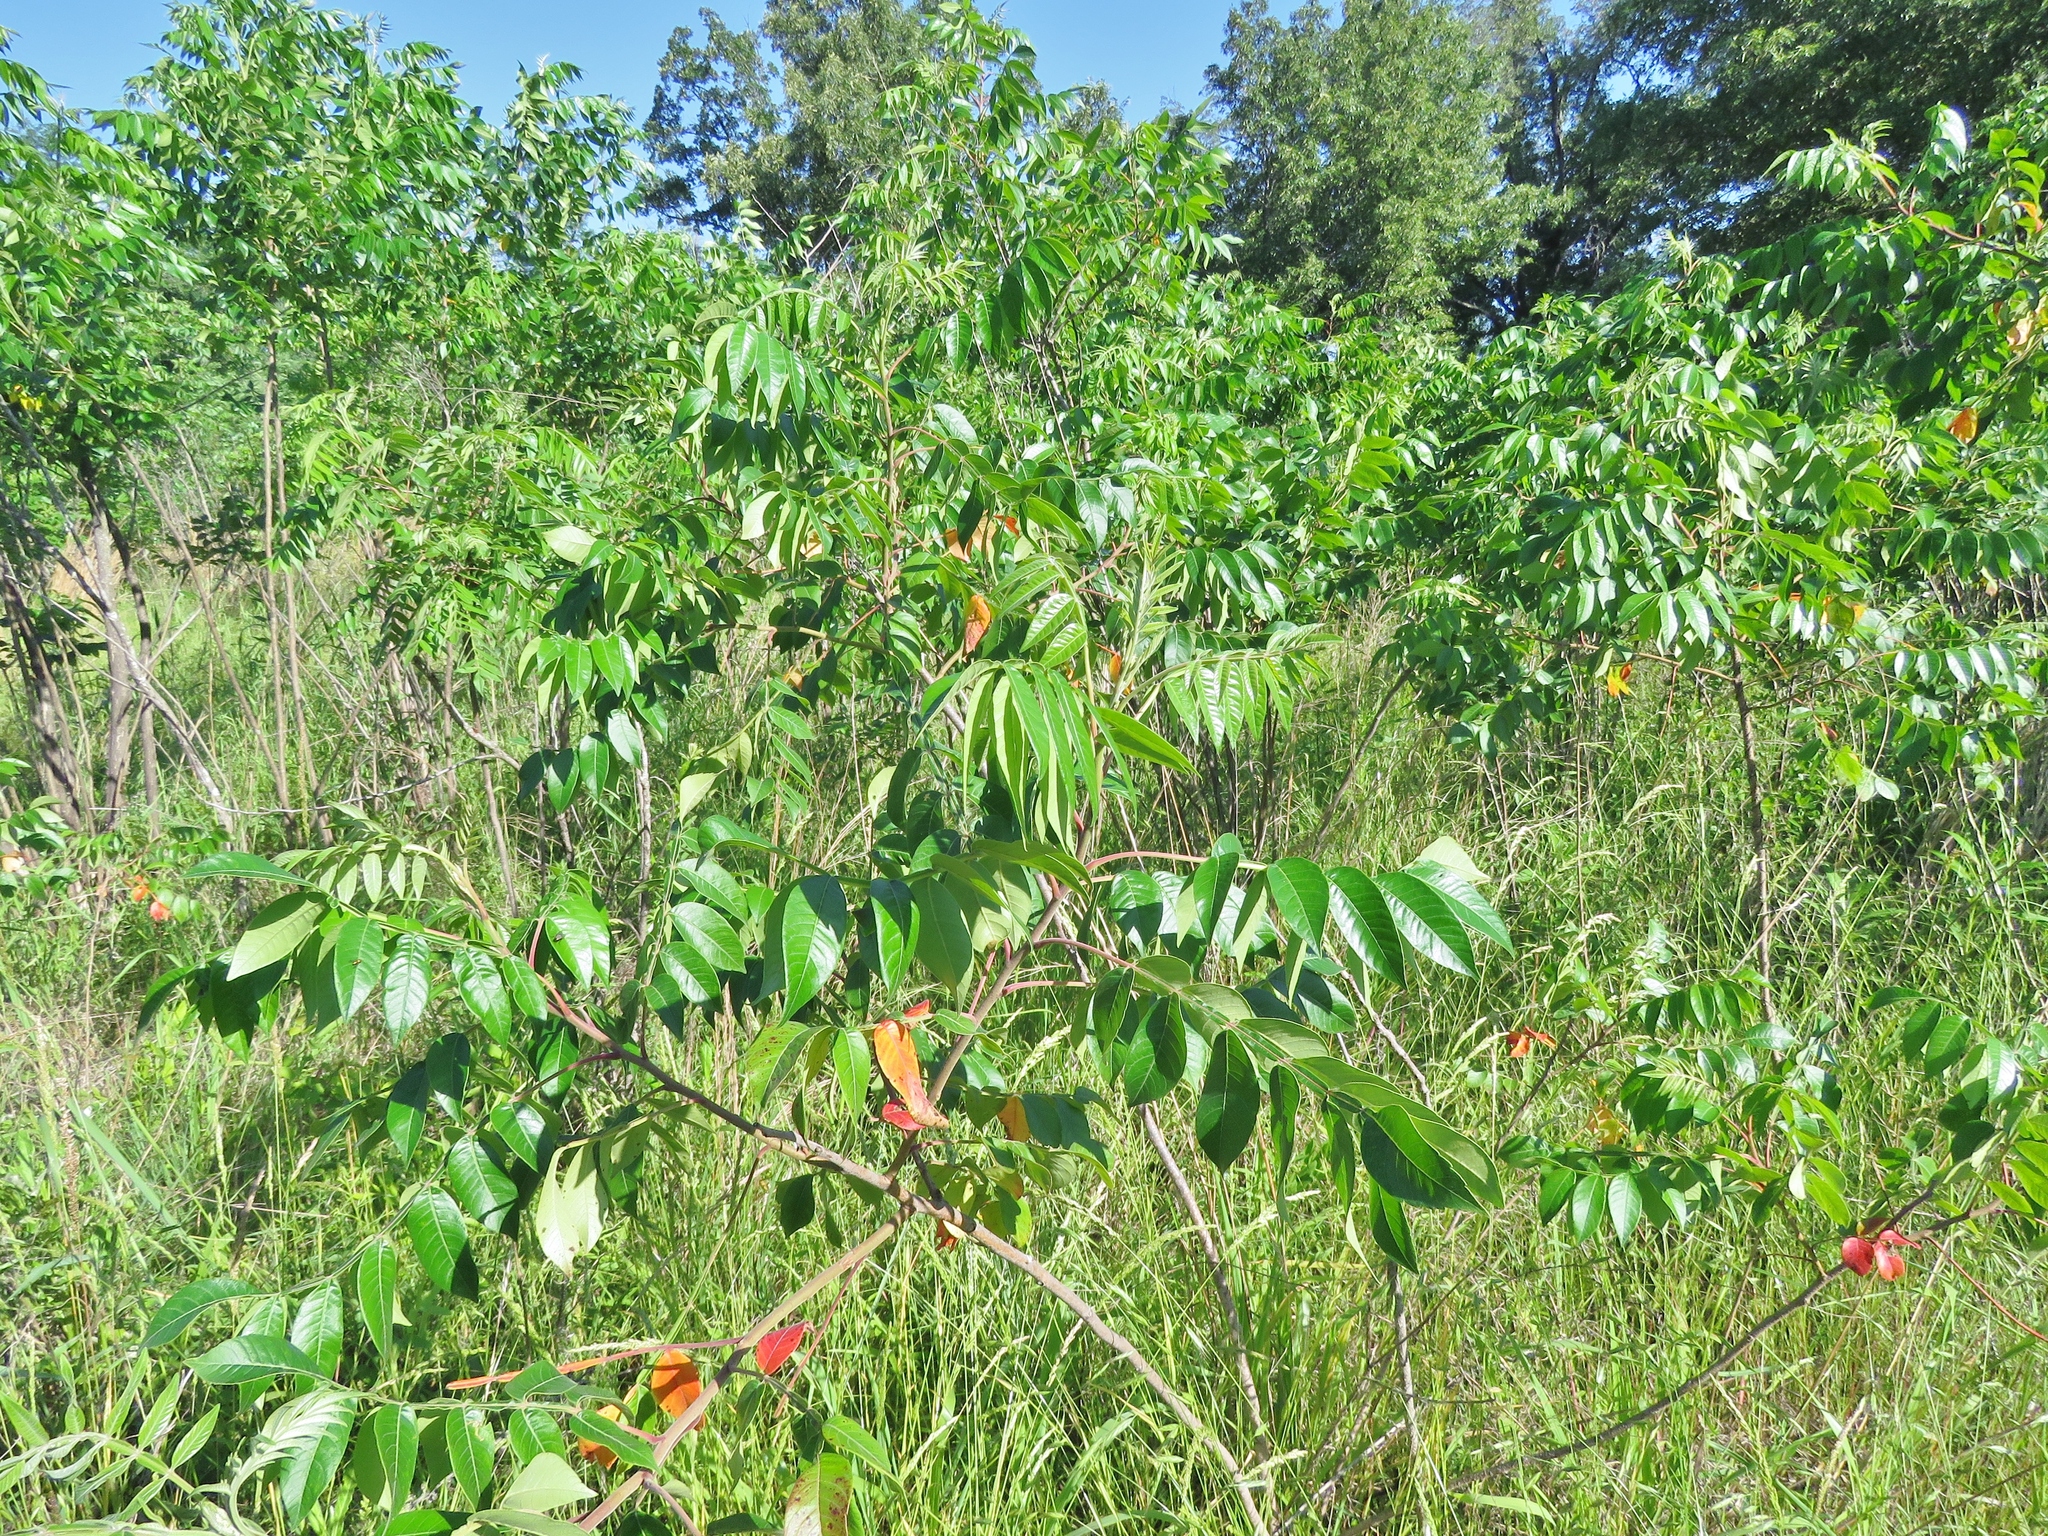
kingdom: Plantae
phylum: Tracheophyta
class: Magnoliopsida
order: Sapindales
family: Anacardiaceae
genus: Rhus
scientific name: Rhus copallina
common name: Shining sumac
